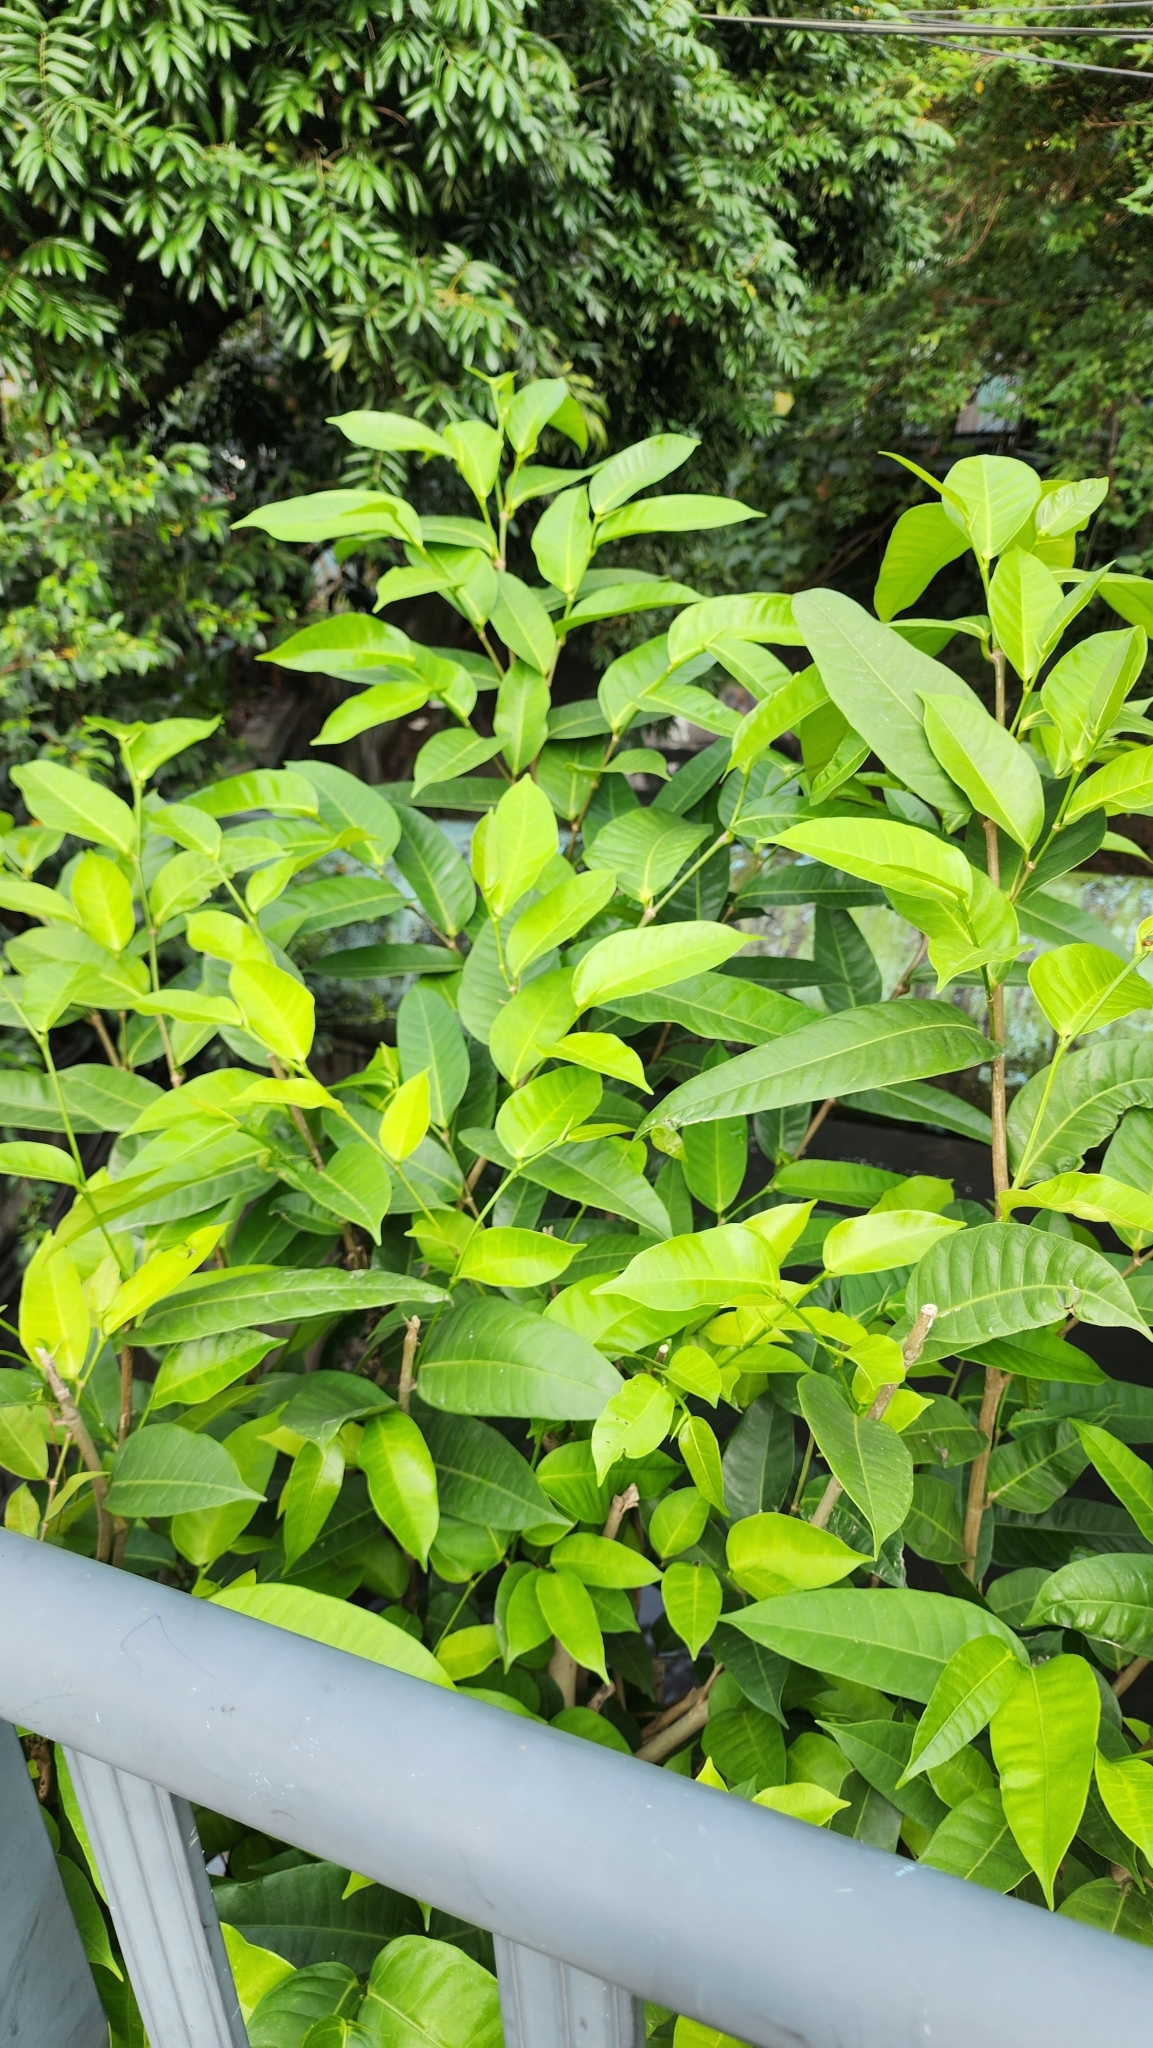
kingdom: Plantae
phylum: Tracheophyta
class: Magnoliopsida
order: Rosales
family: Moraceae
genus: Ficus
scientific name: Ficus virgata
